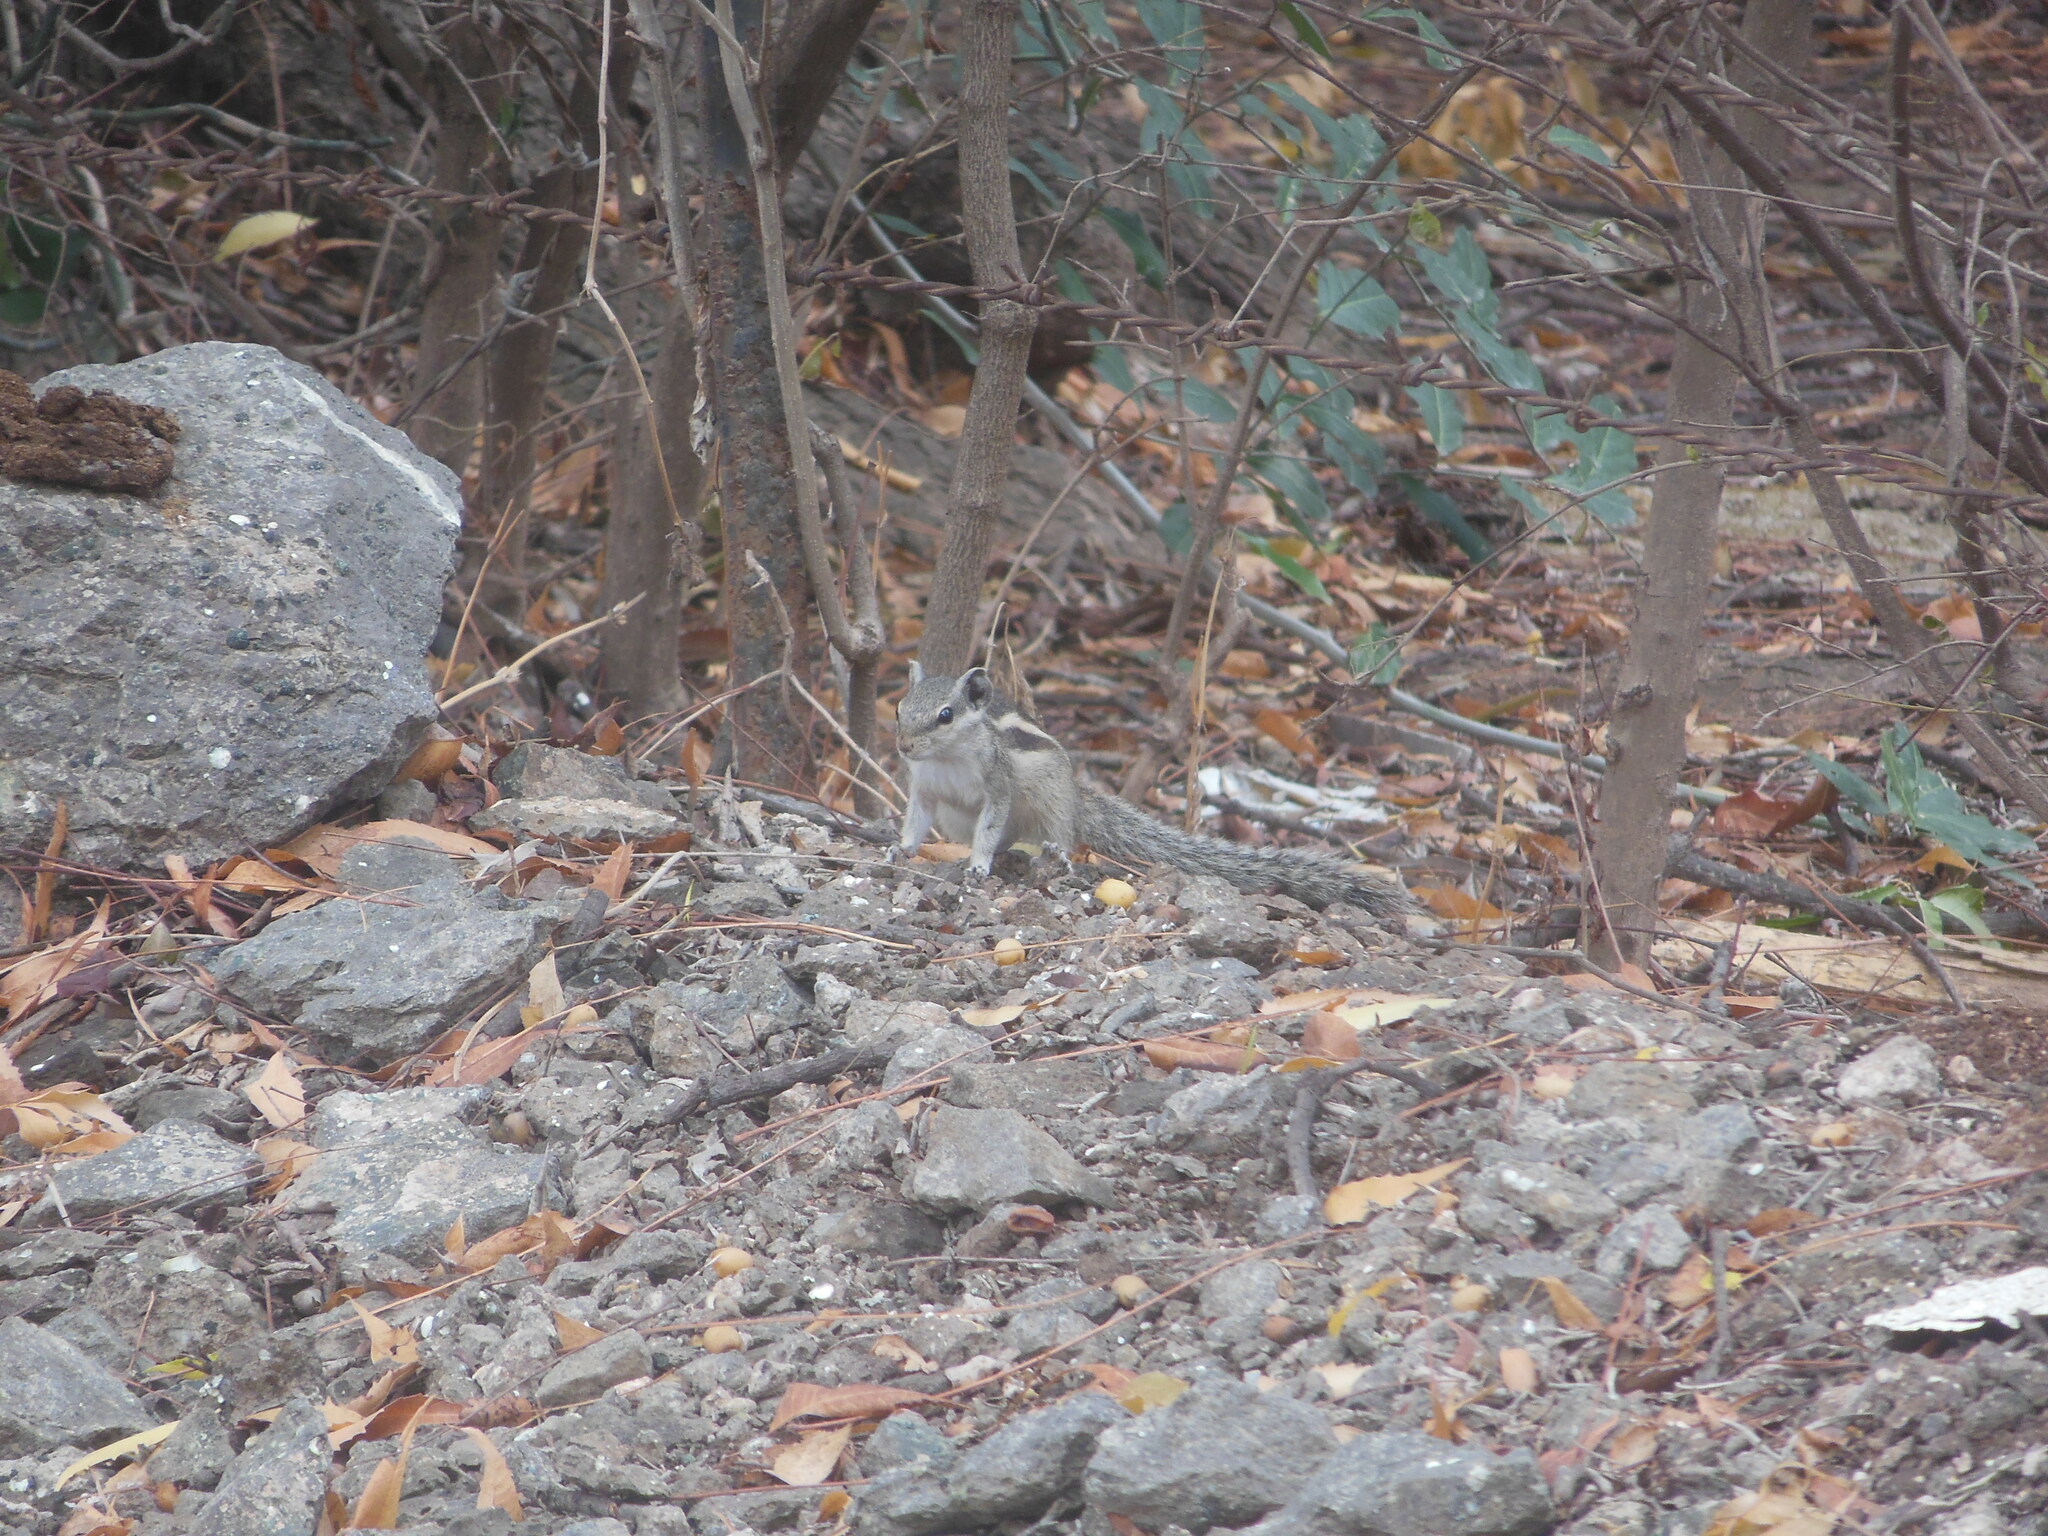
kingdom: Animalia
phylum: Chordata
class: Mammalia
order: Rodentia
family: Sciuridae
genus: Funambulus
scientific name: Funambulus pennantii
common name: Northern palm squirrel
